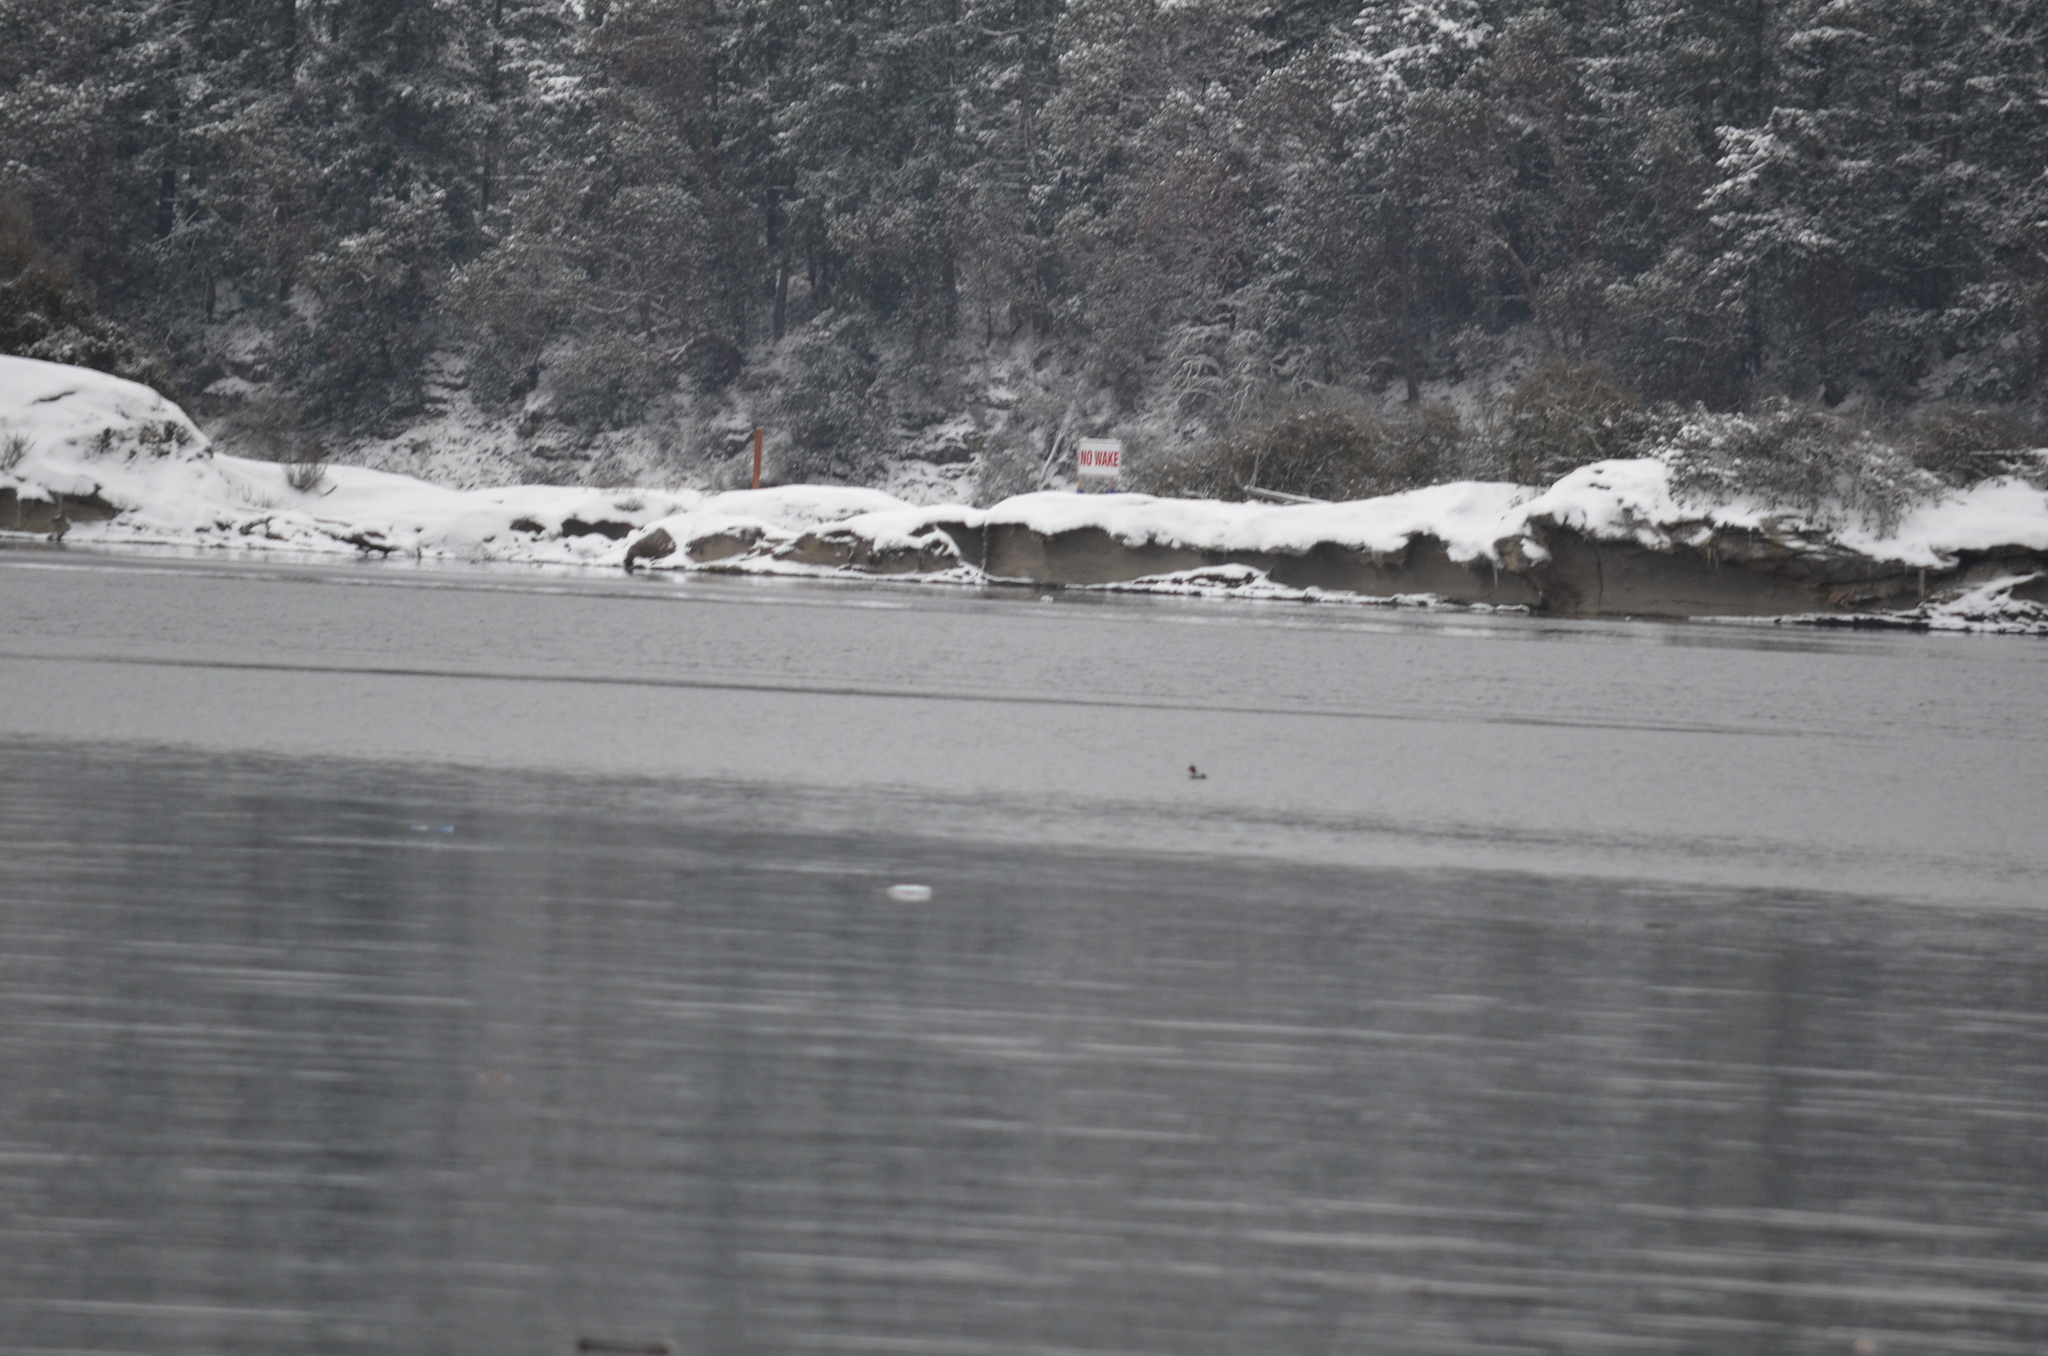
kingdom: Animalia
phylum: Chordata
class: Aves
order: Anseriformes
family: Anatidae
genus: Bucephala
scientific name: Bucephala clangula
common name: Common goldeneye
